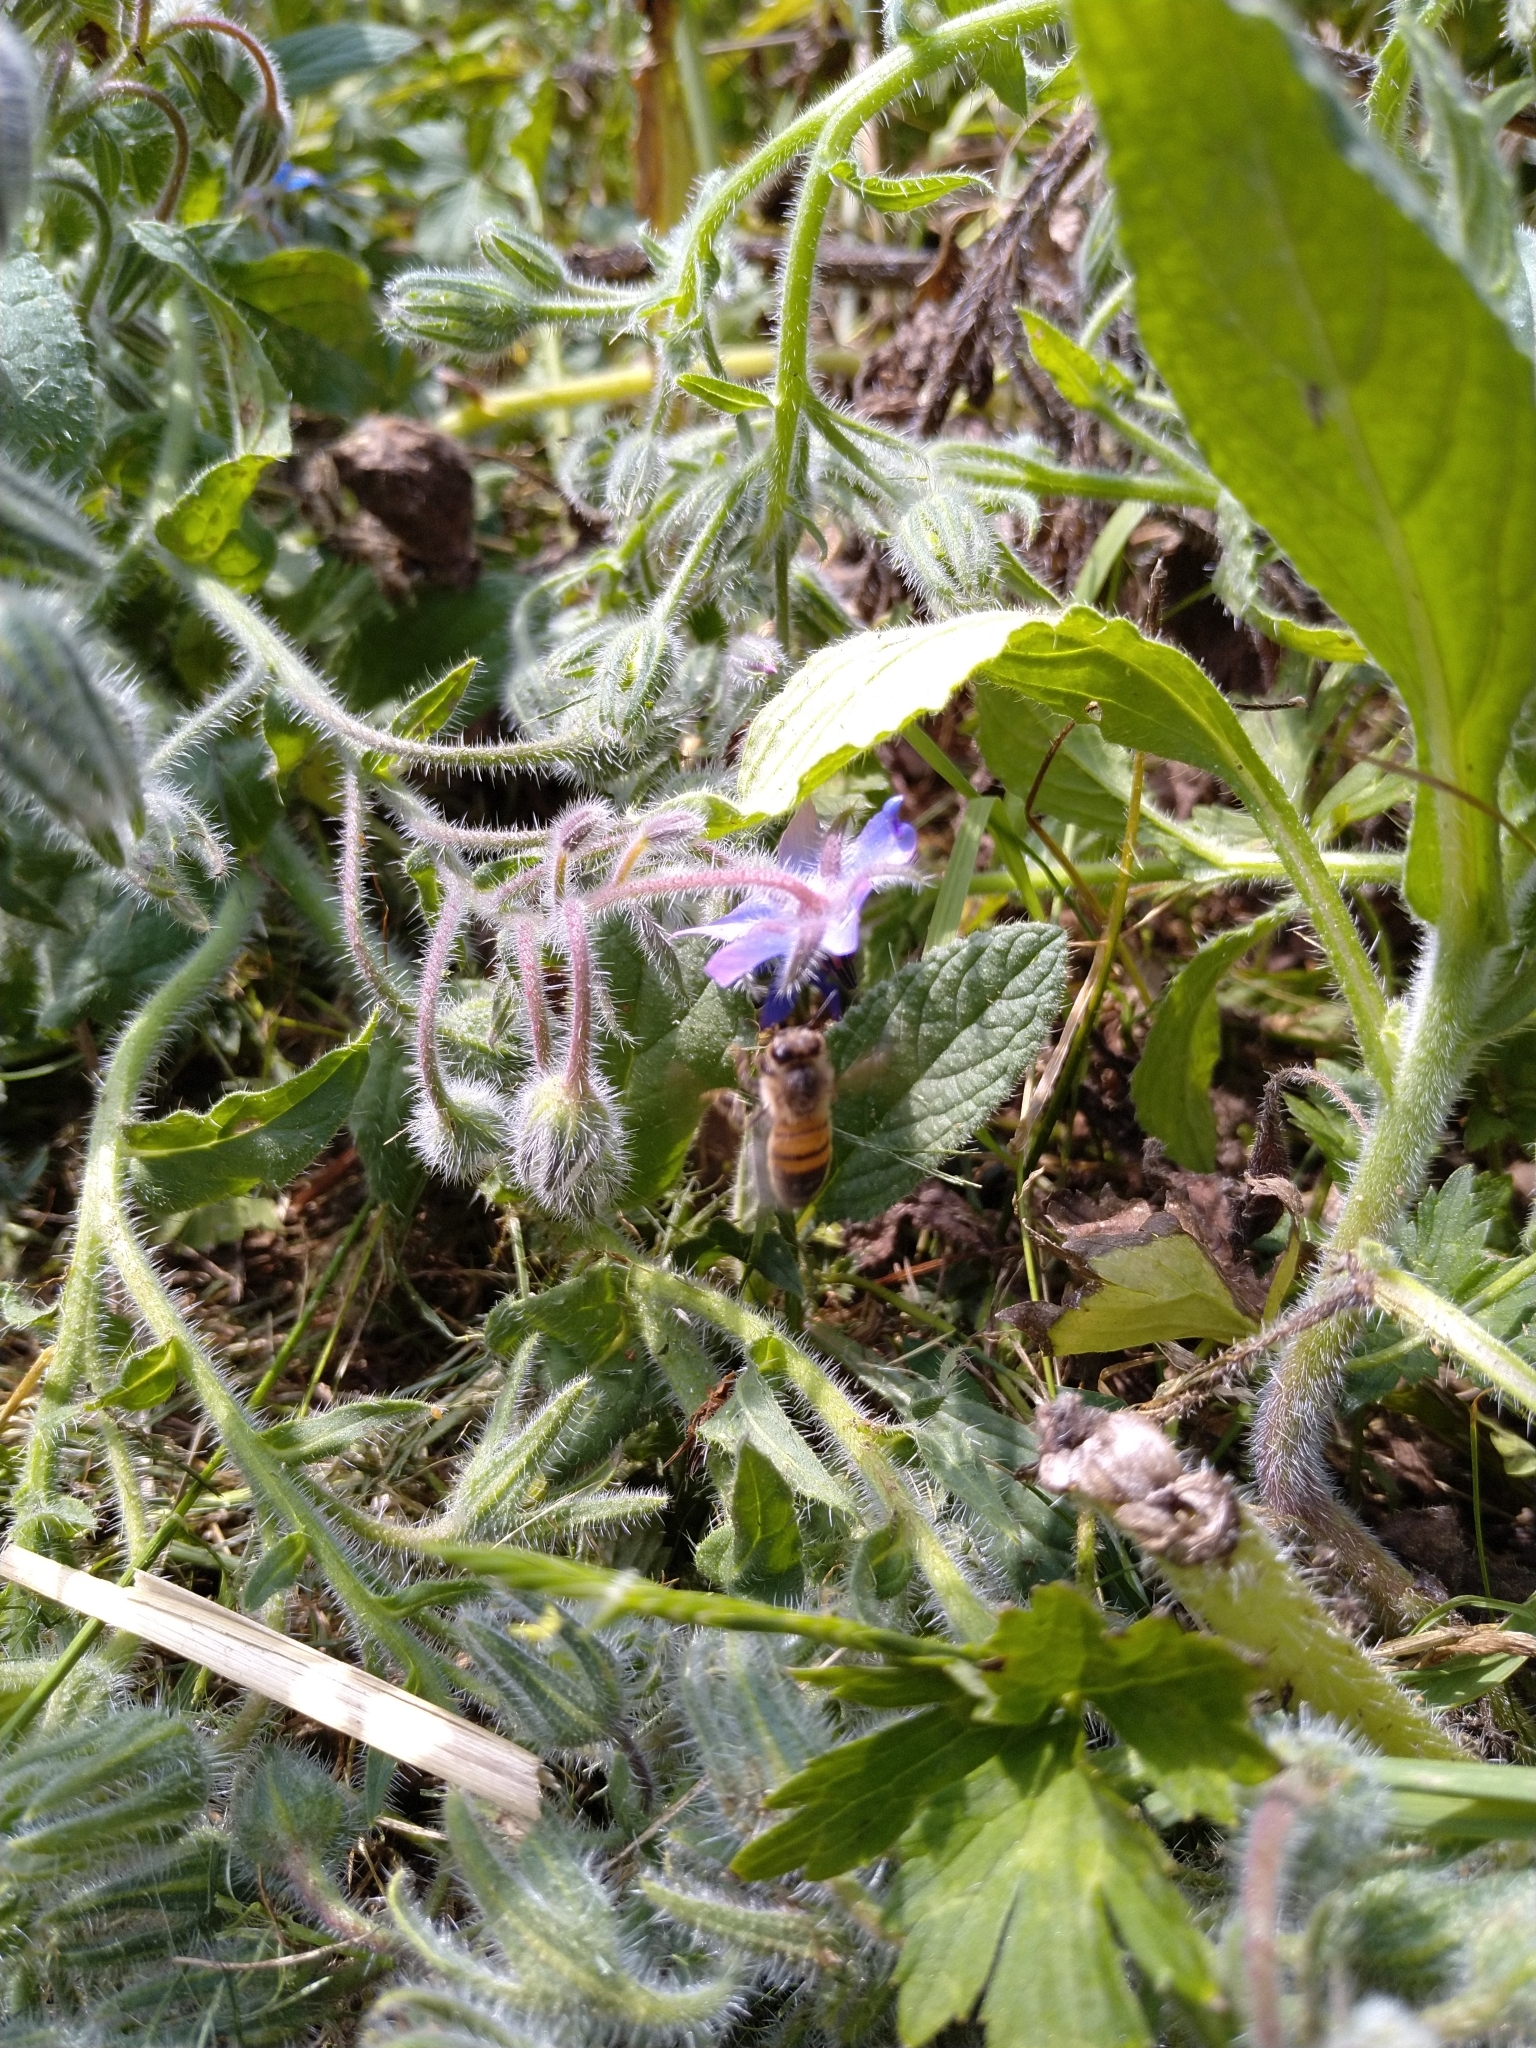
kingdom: Animalia
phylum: Arthropoda
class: Insecta
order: Hymenoptera
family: Apidae
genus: Apis
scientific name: Apis mellifera
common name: Honey bee
